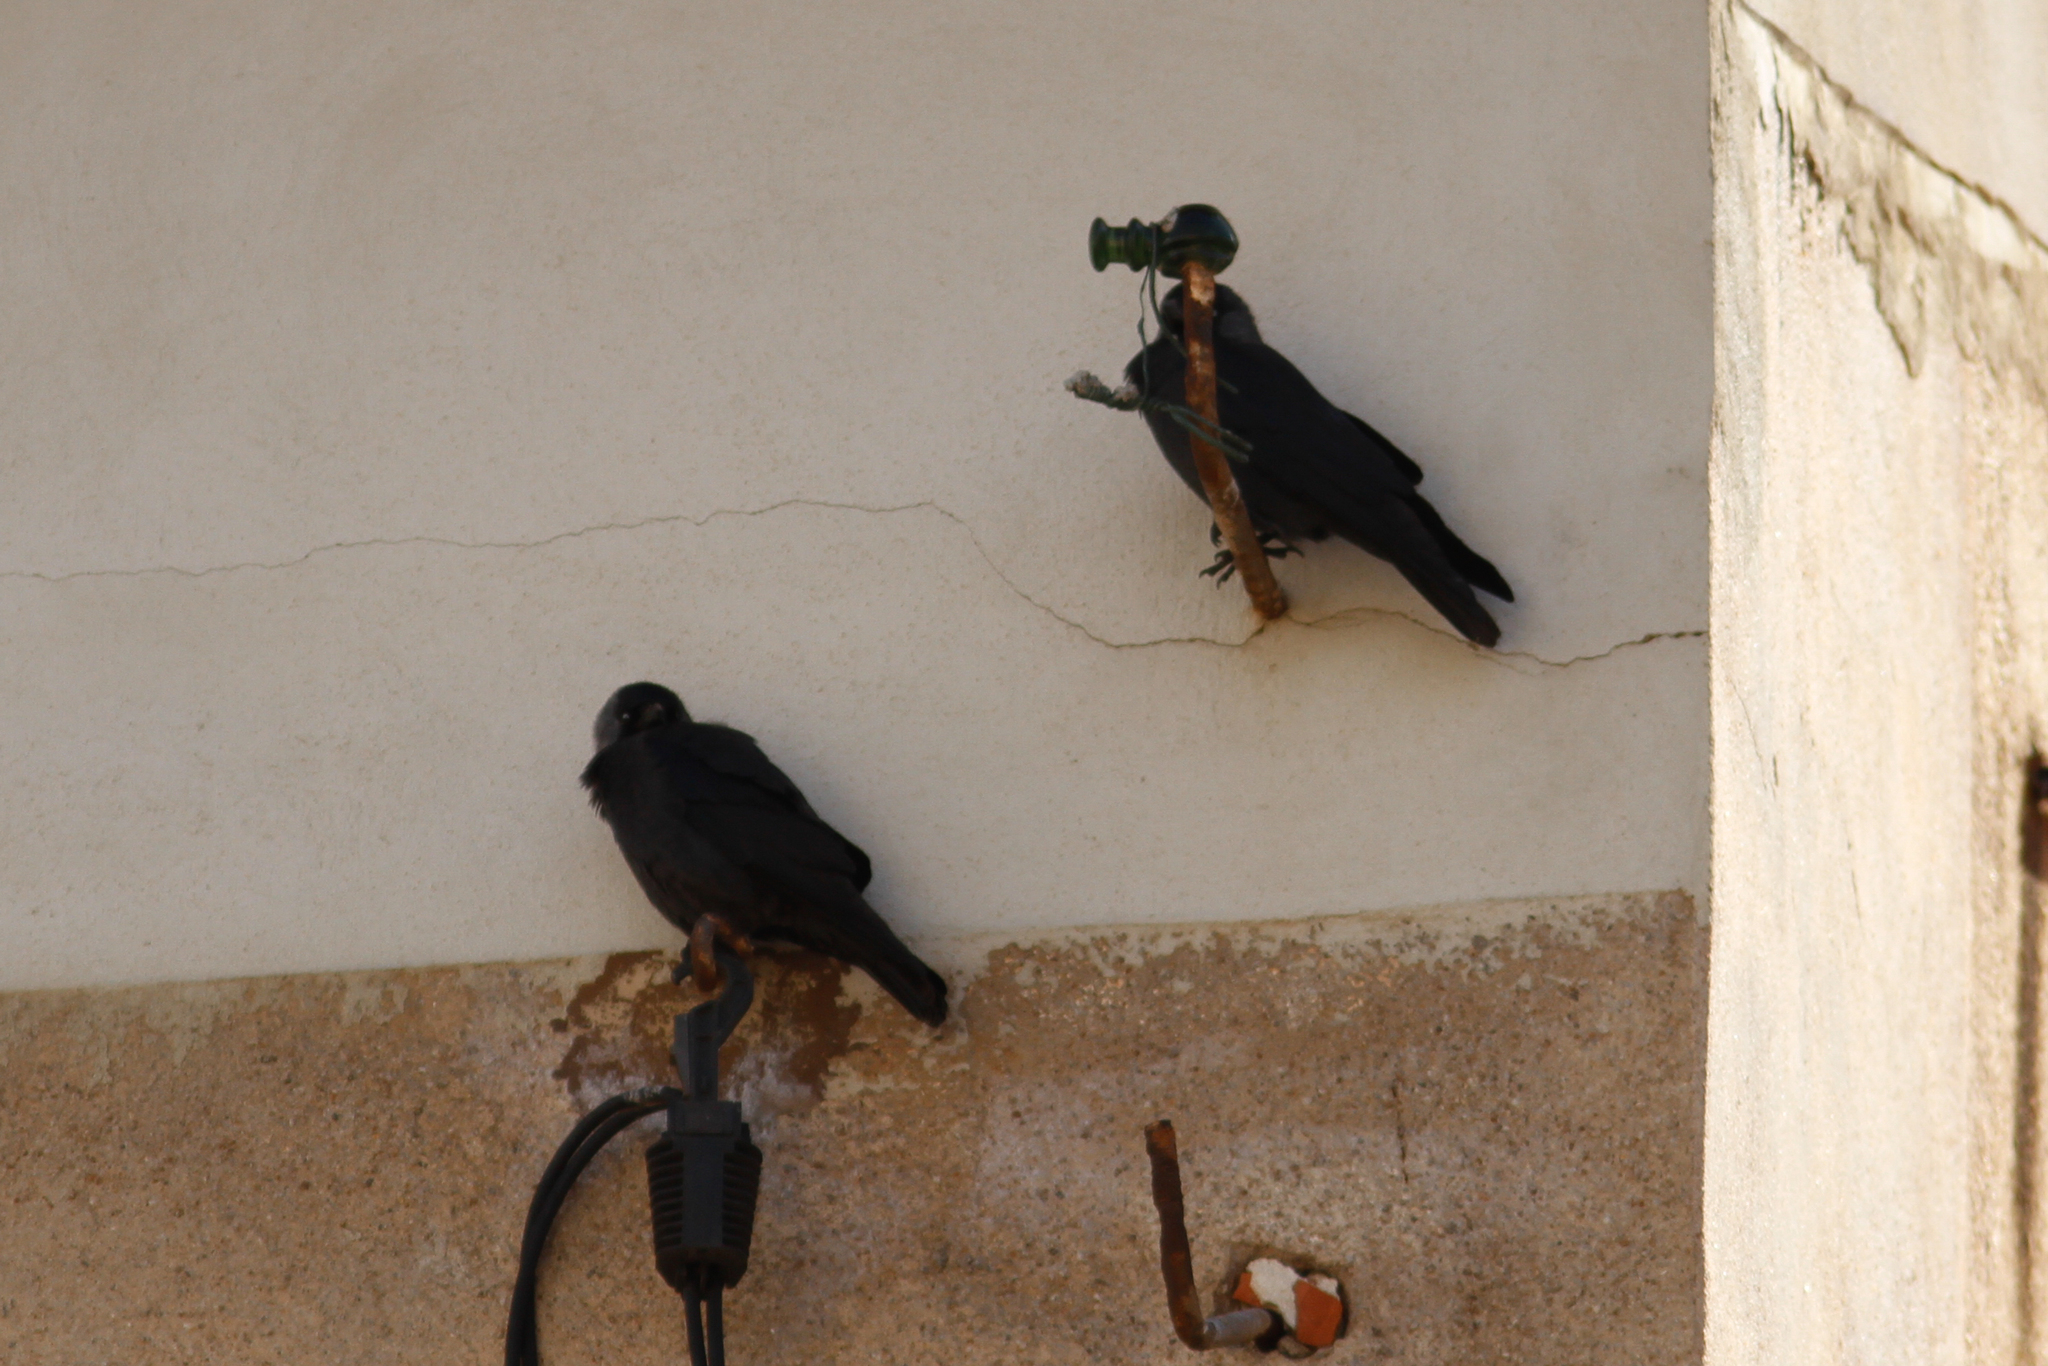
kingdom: Animalia
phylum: Chordata
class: Aves
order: Passeriformes
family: Corvidae
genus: Coloeus
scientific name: Coloeus monedula
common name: Western jackdaw
